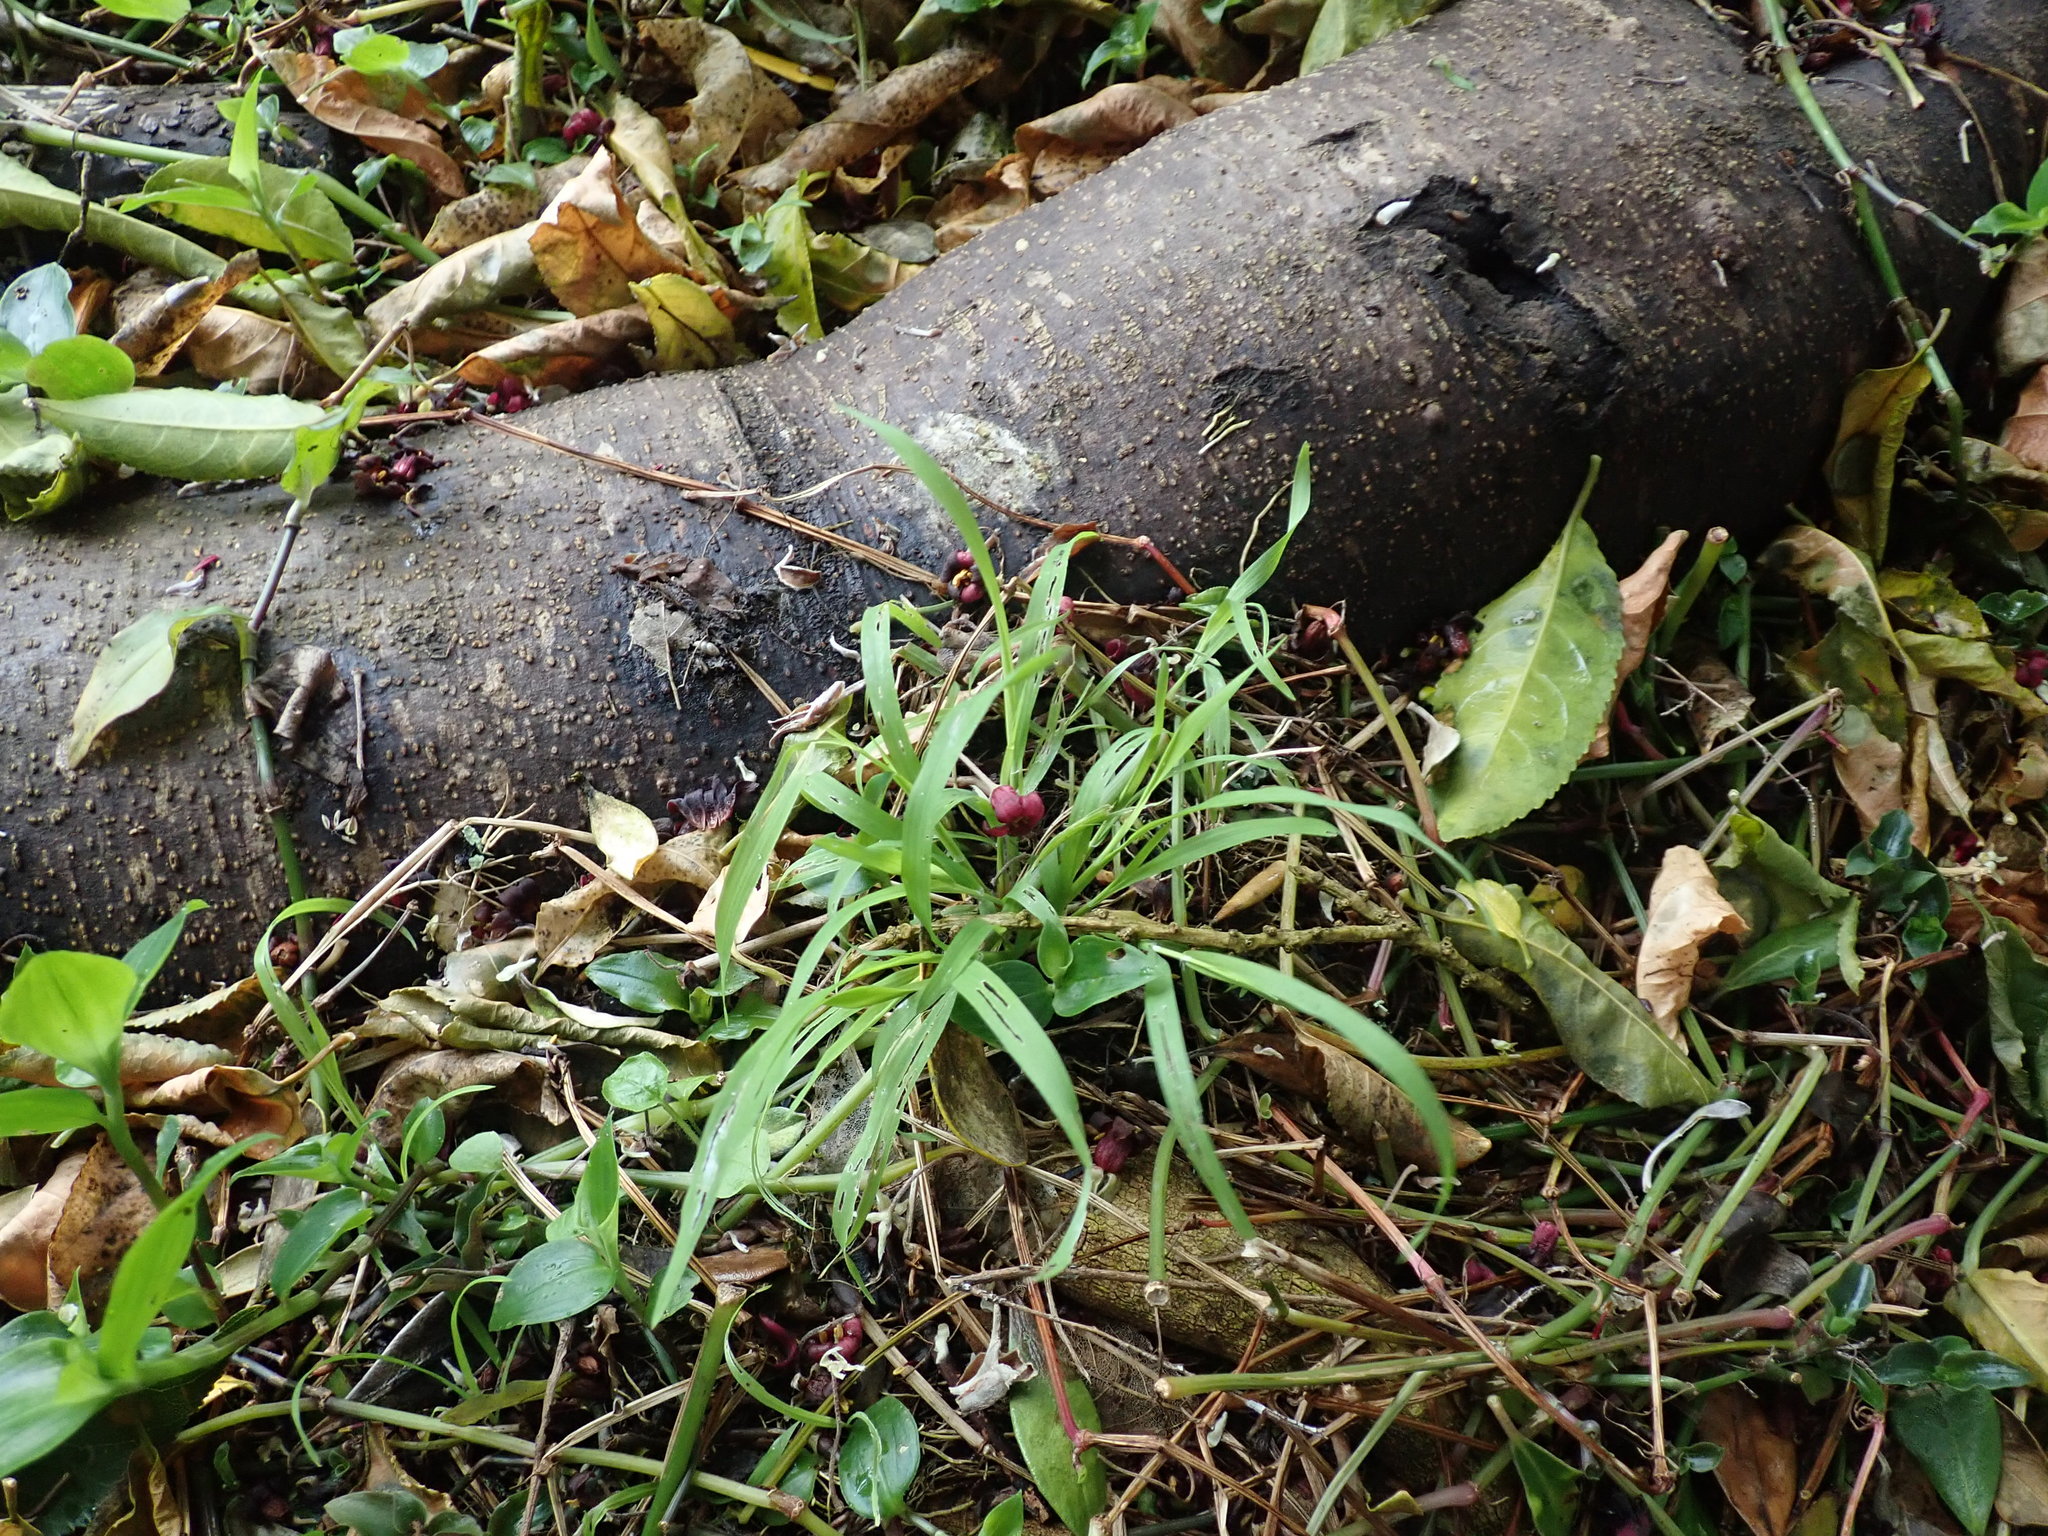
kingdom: Plantae
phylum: Tracheophyta
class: Liliopsida
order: Poales
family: Poaceae
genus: Ehrharta
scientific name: Ehrharta erecta
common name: Panic veldtgrass
